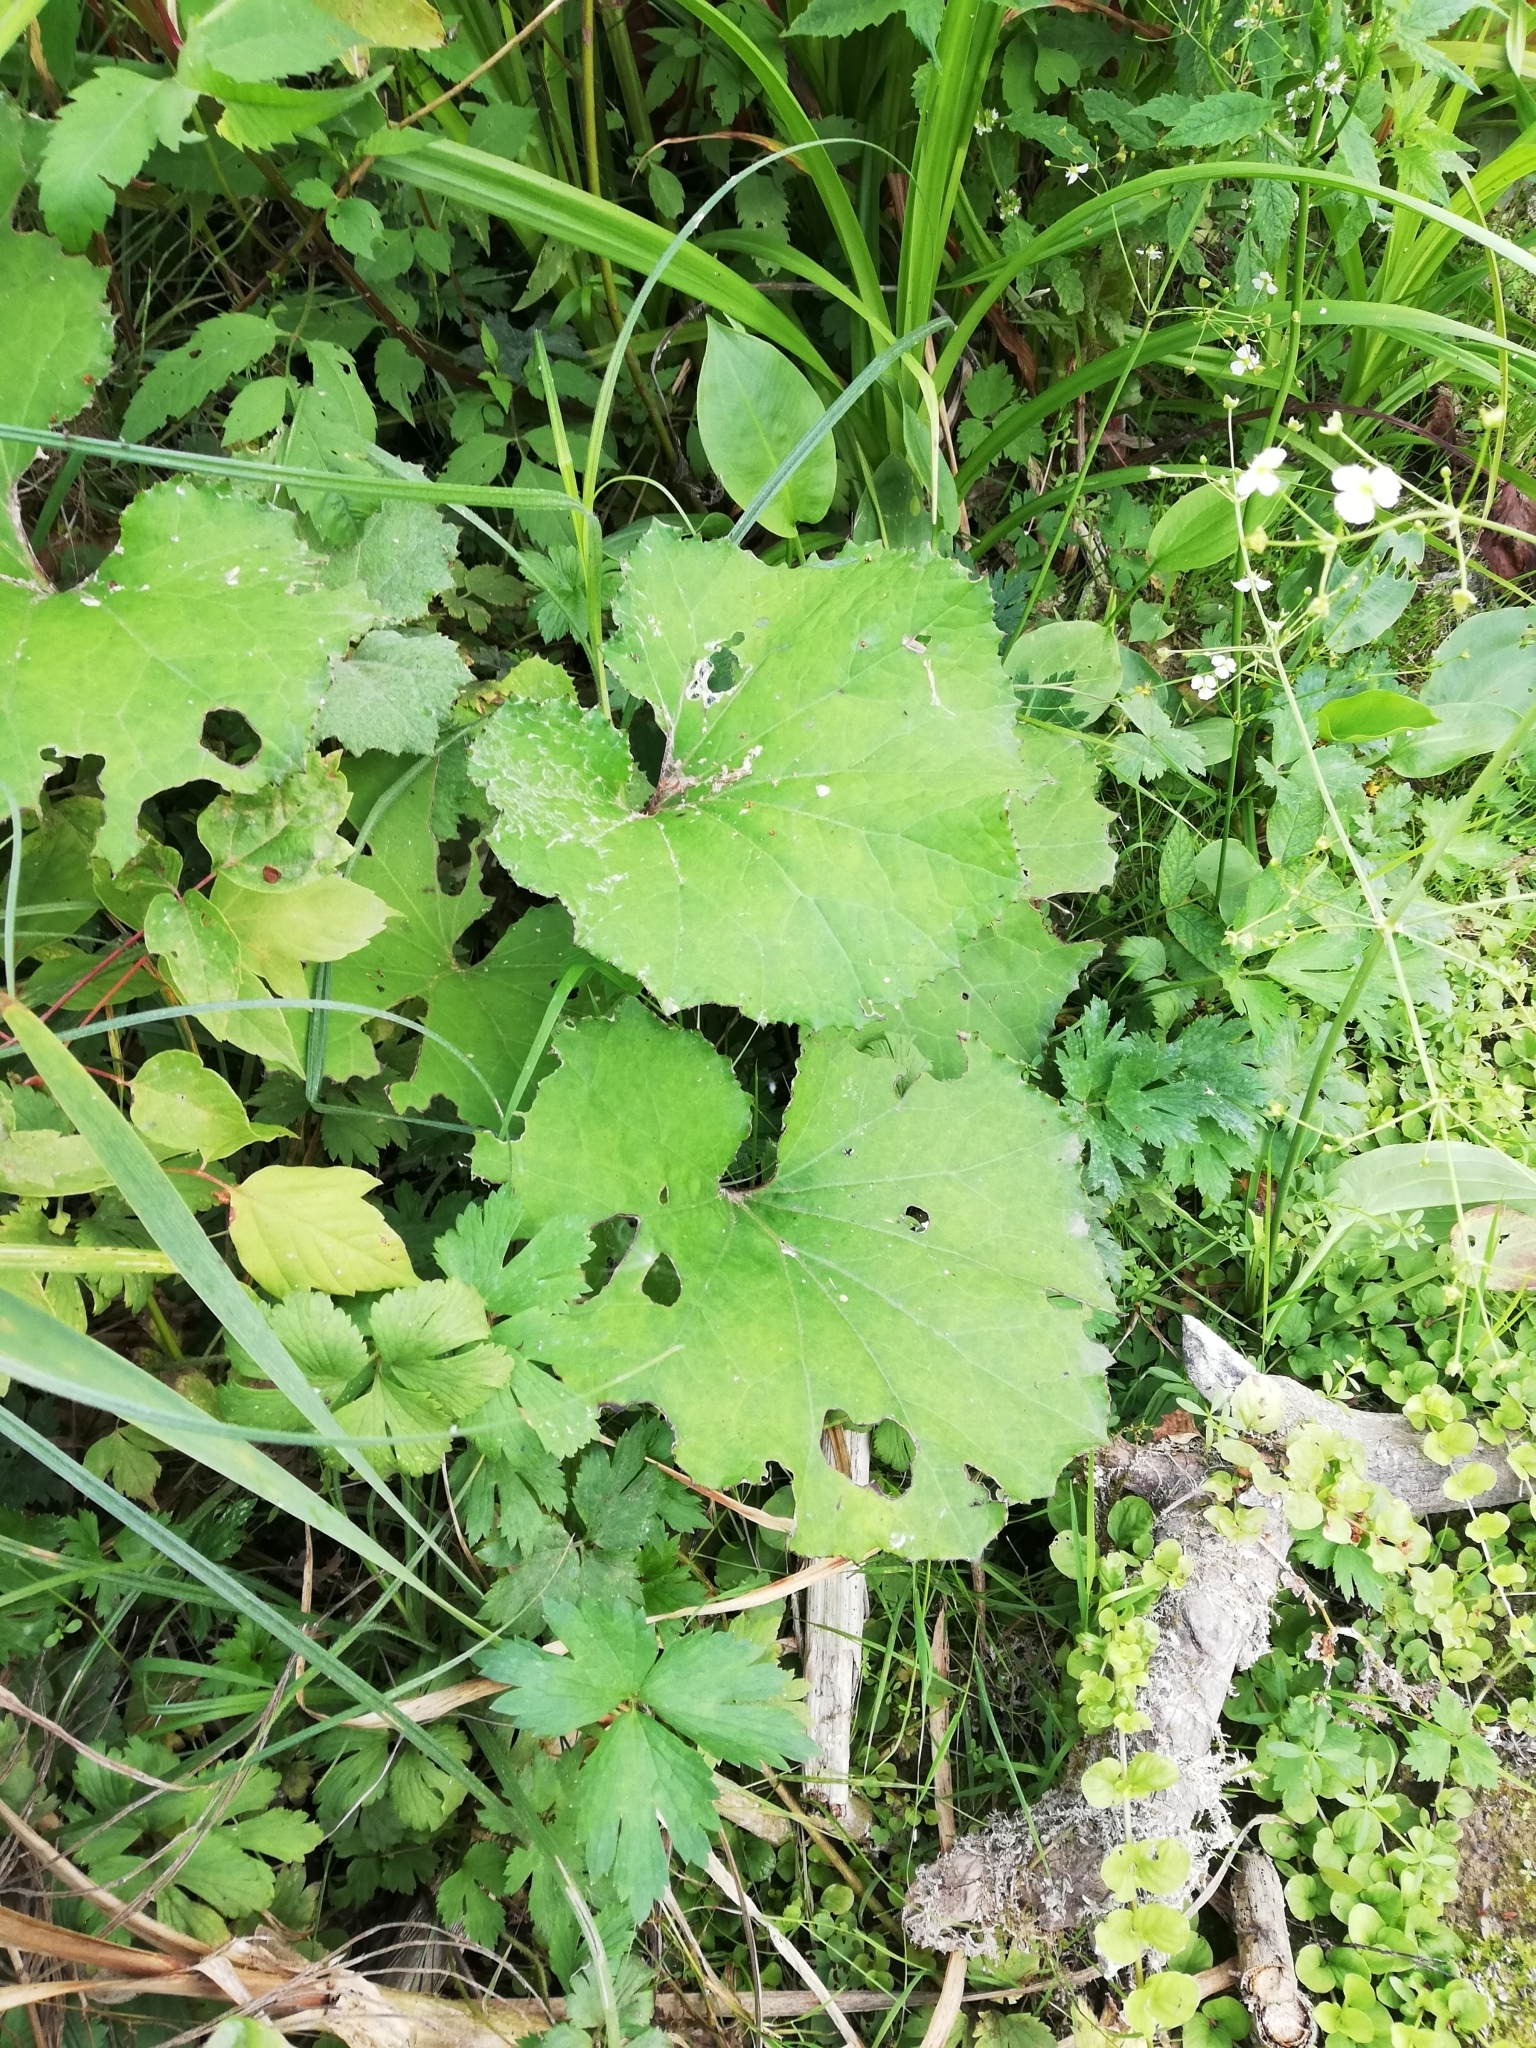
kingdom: Plantae
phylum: Tracheophyta
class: Magnoliopsida
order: Asterales
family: Asteraceae
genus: Tussilago
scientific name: Tussilago farfara
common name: Coltsfoot
